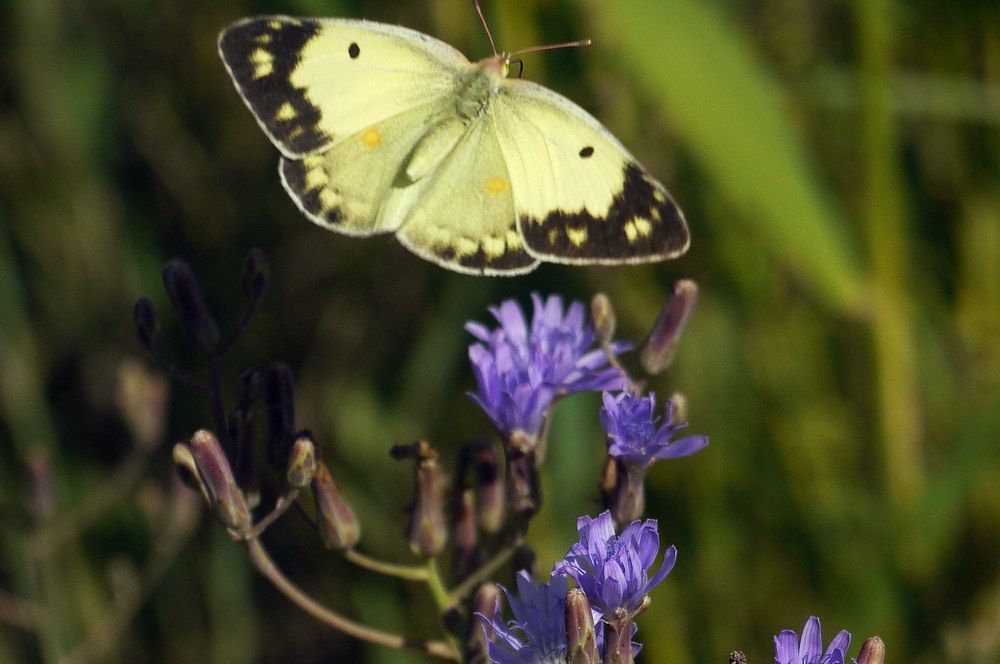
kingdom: Animalia
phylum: Arthropoda
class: Insecta
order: Lepidoptera
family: Pieridae
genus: Colias
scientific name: Colias erate
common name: Eastern pale clouded yellow
